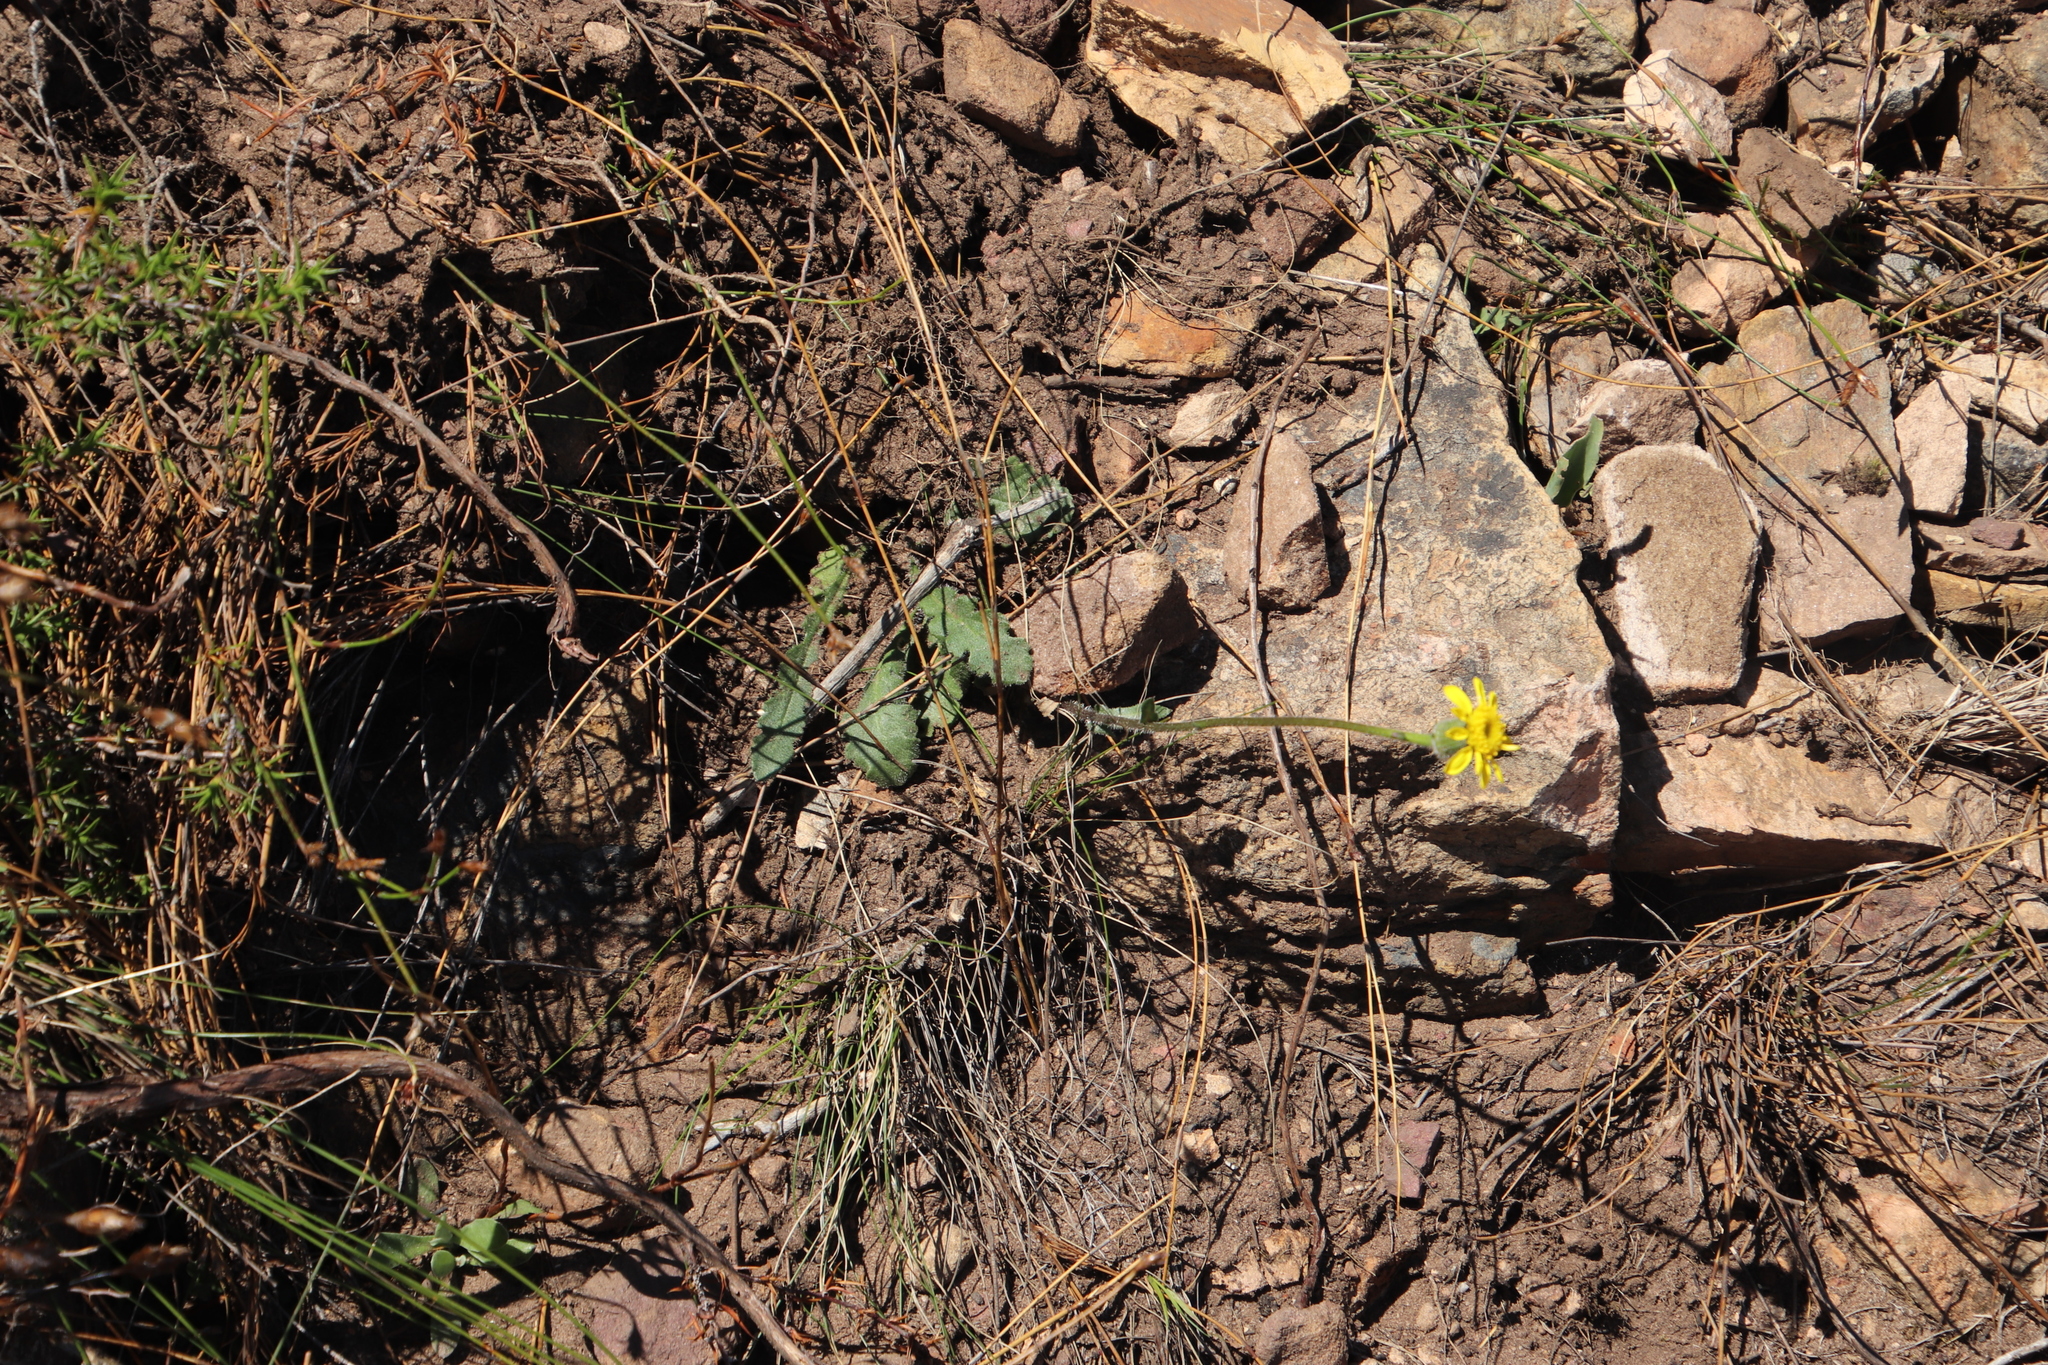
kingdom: Plantae
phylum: Tracheophyta
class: Magnoliopsida
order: Asterales
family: Asteraceae
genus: Othonna
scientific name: Othonna heterophylla
